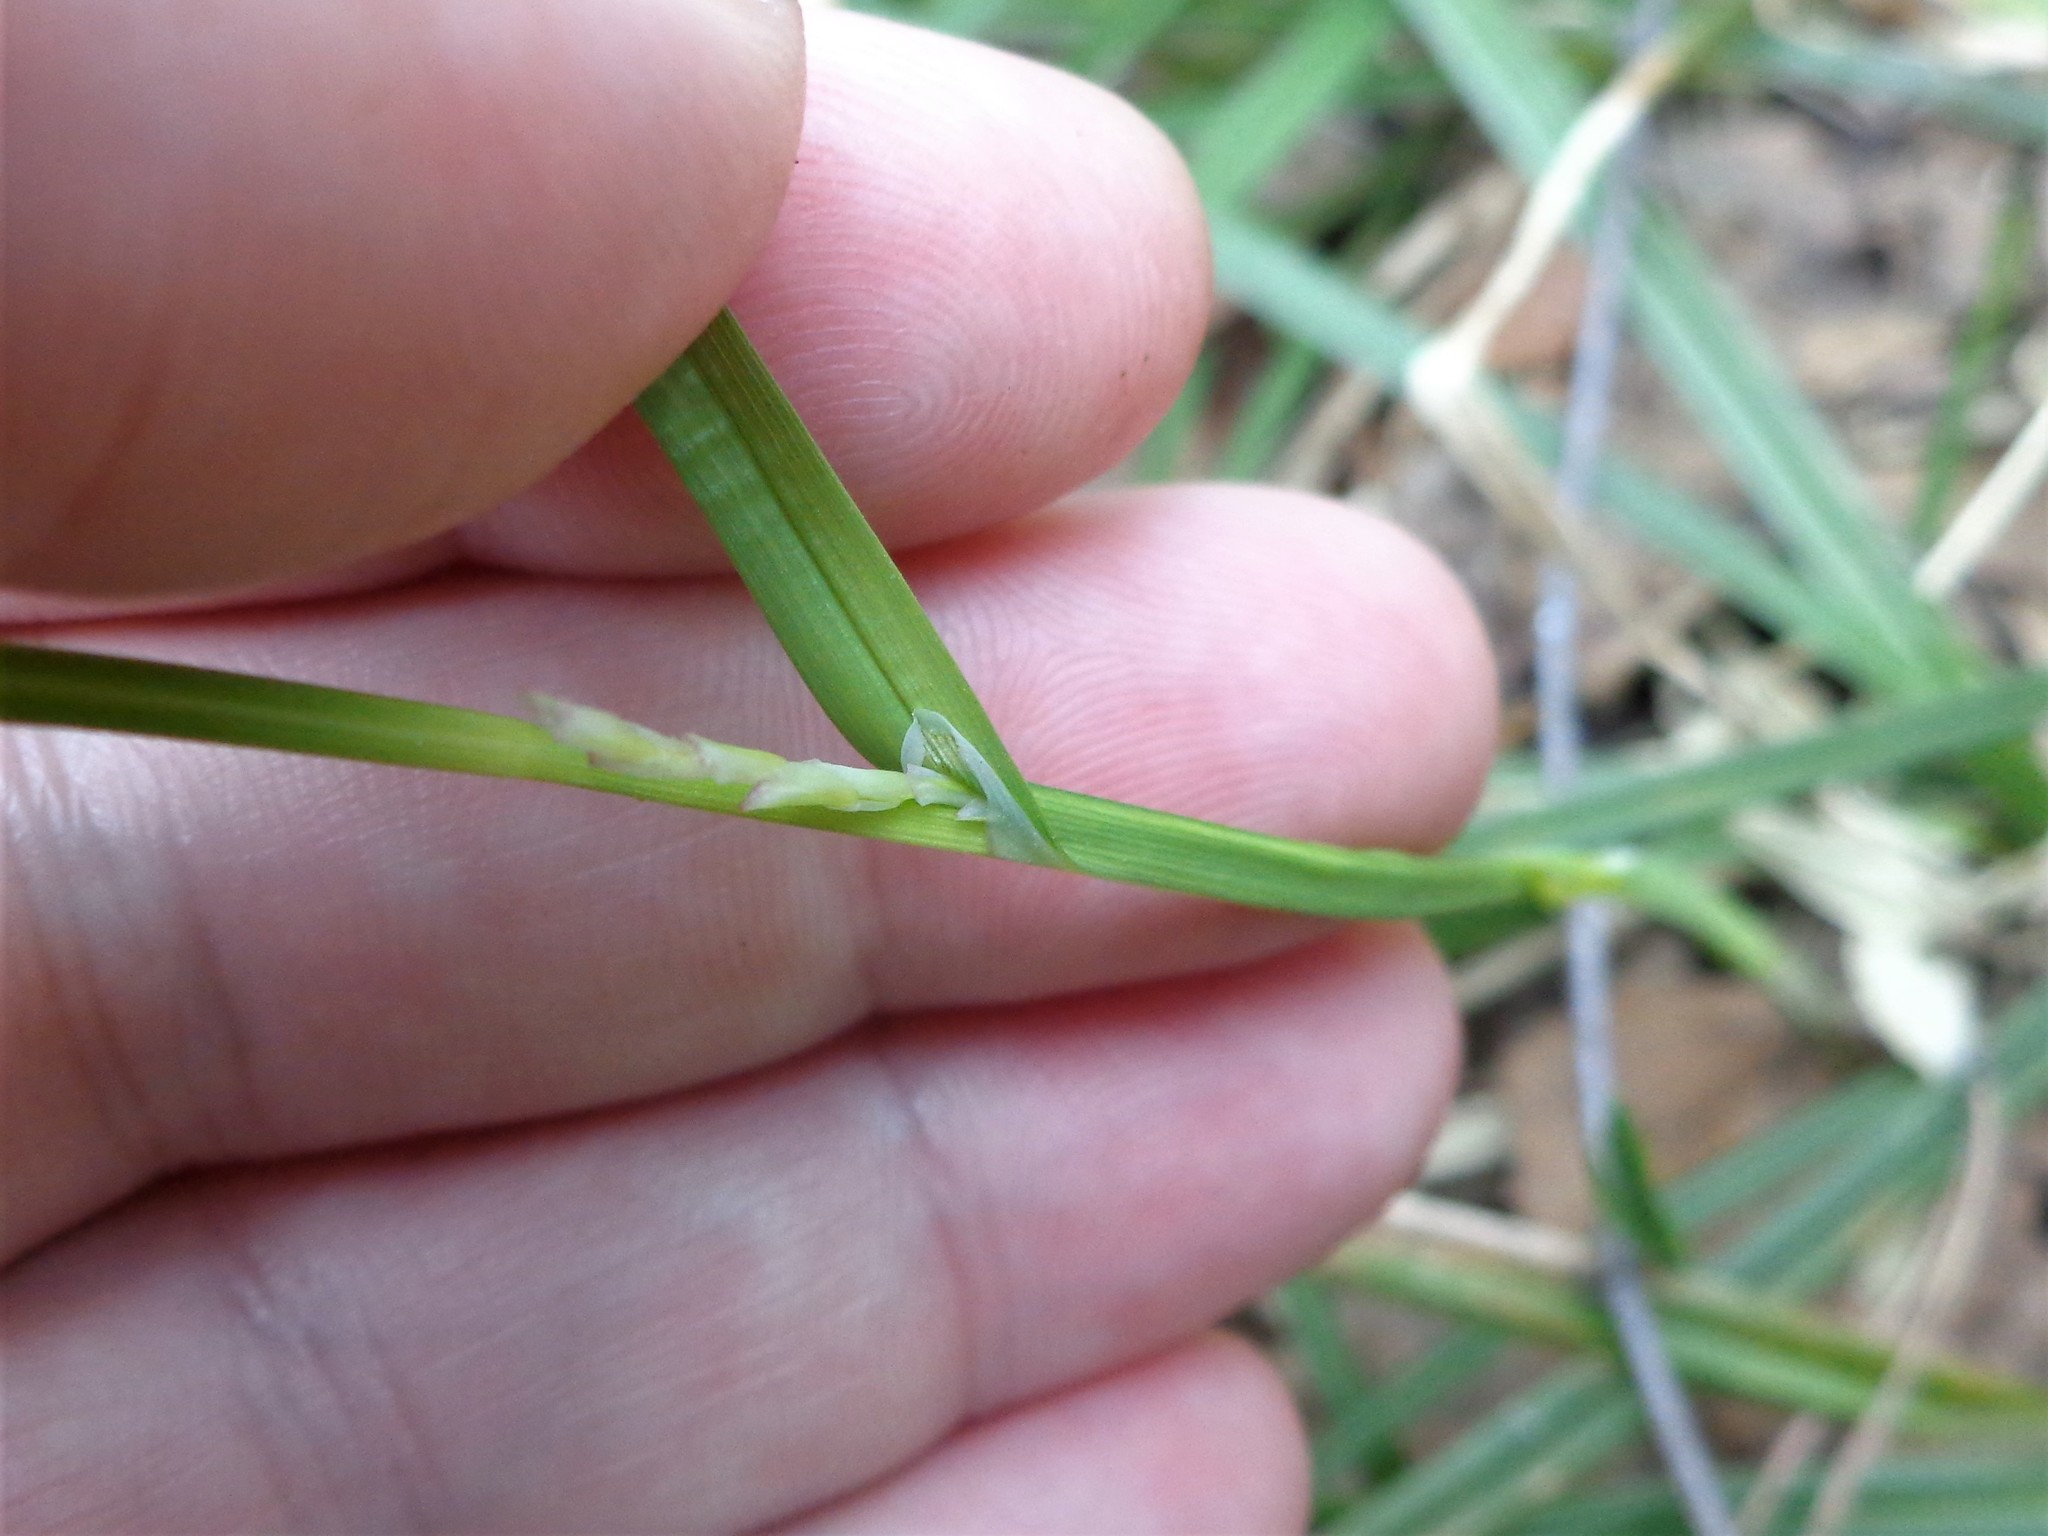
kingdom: Plantae
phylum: Tracheophyta
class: Liliopsida
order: Poales
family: Cyperaceae
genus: Carex
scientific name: Carex pilosa
